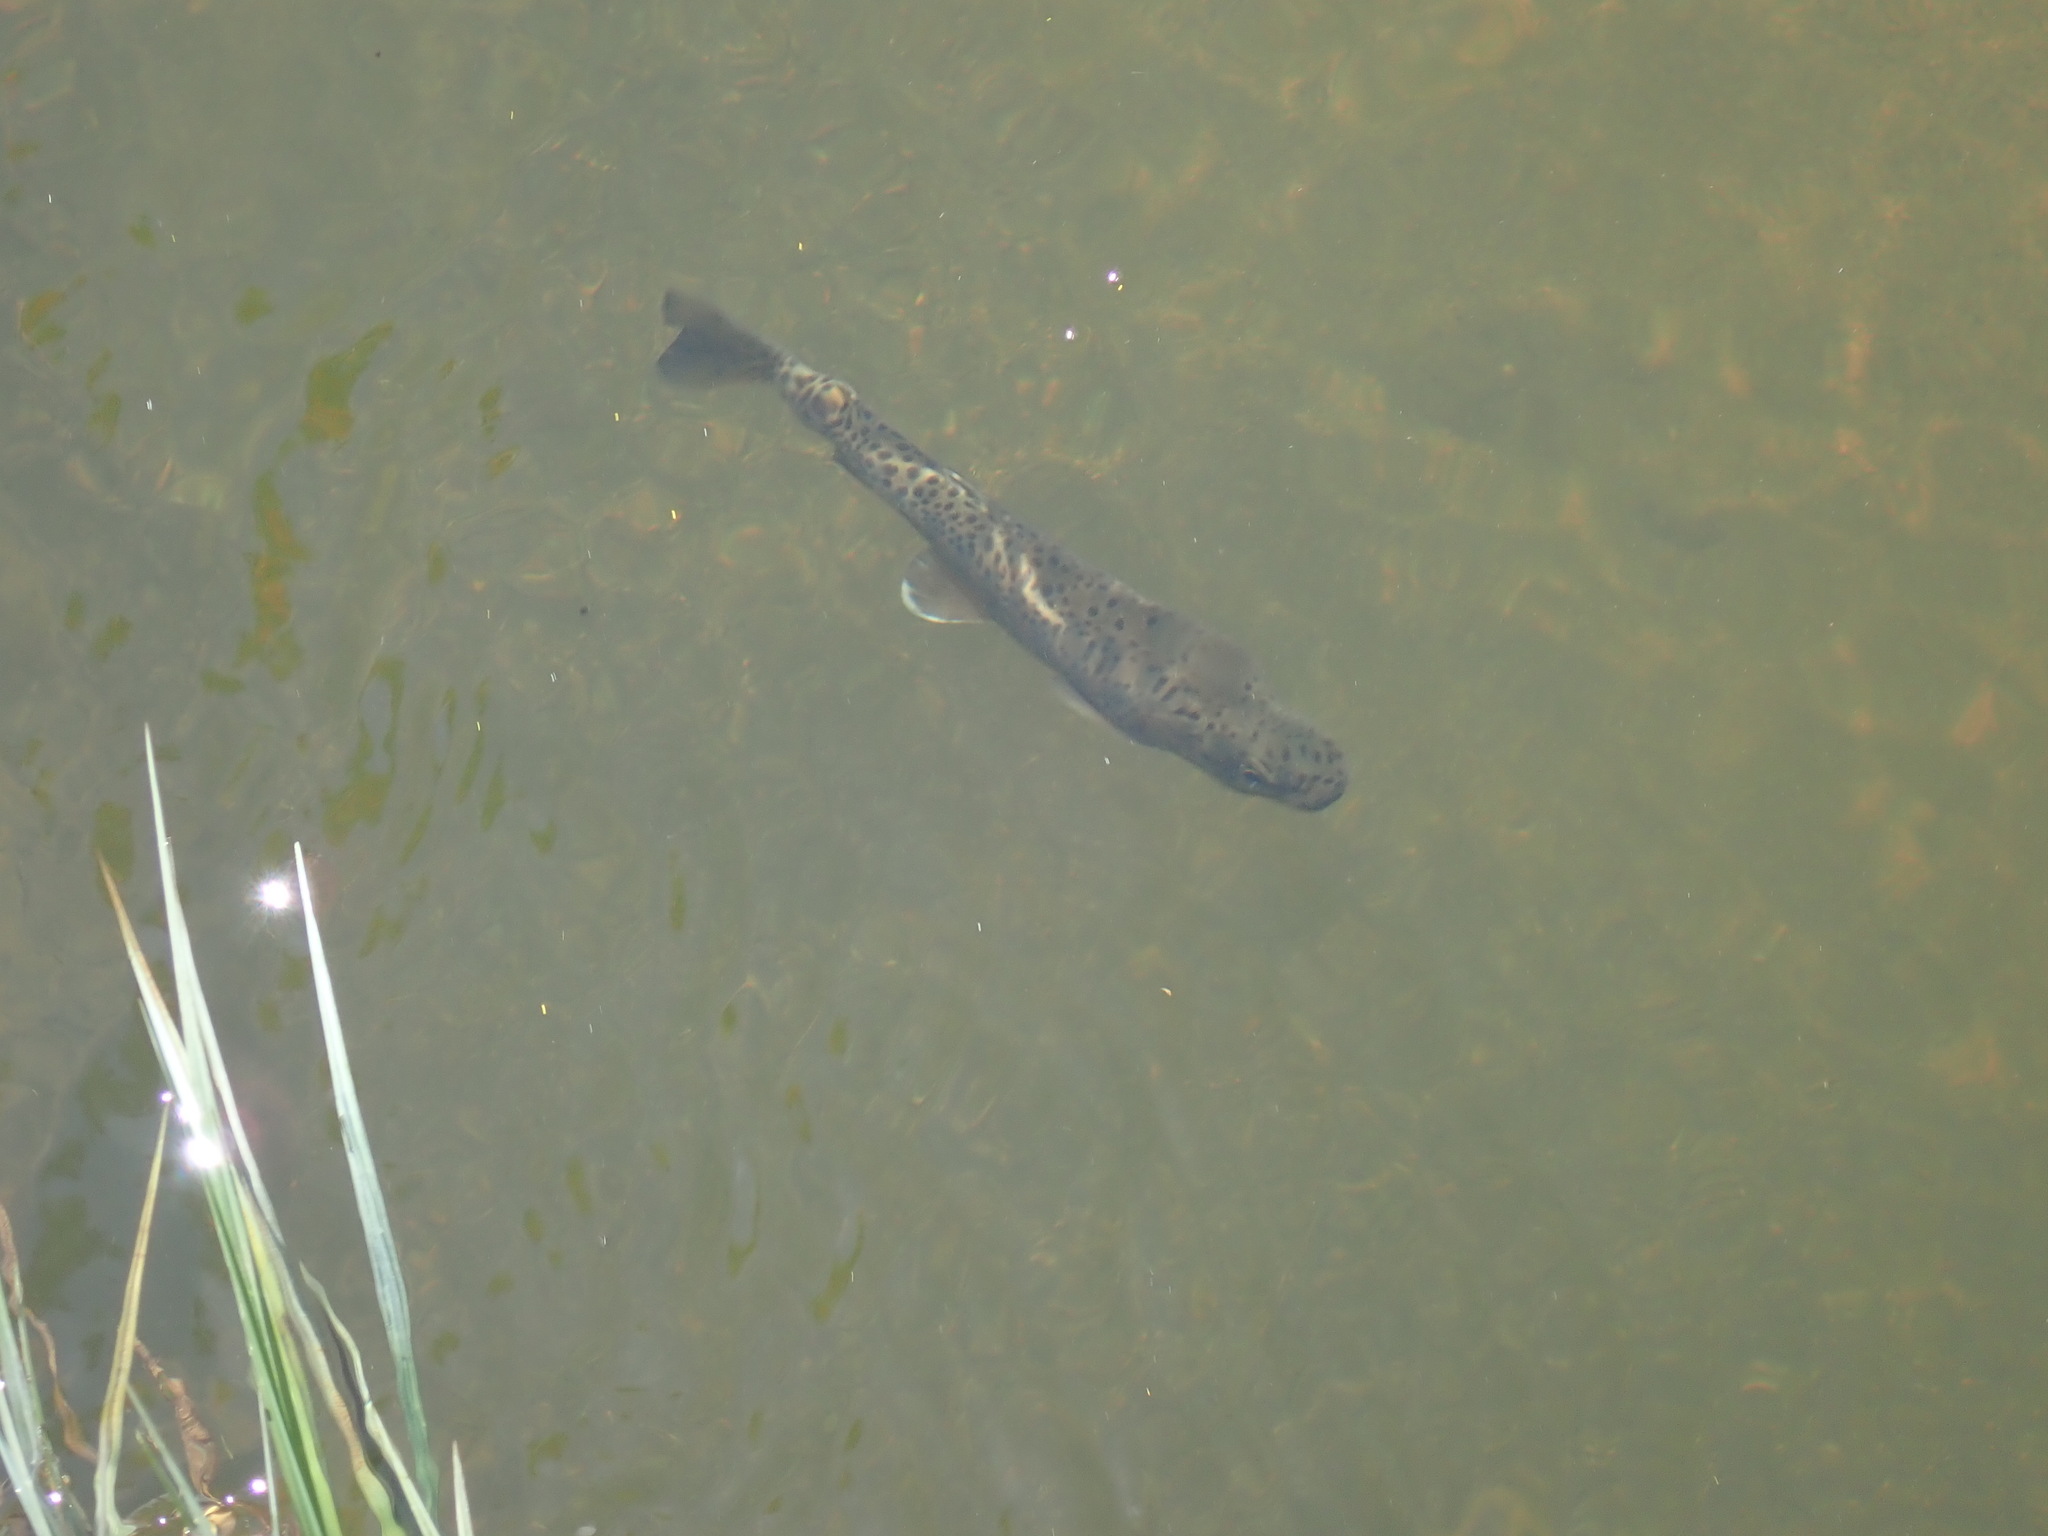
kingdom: Animalia
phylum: Chordata
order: Salmoniformes
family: Salmonidae
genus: Oncorhynchus
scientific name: Oncorhynchus mykiss
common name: Rainbow trout
